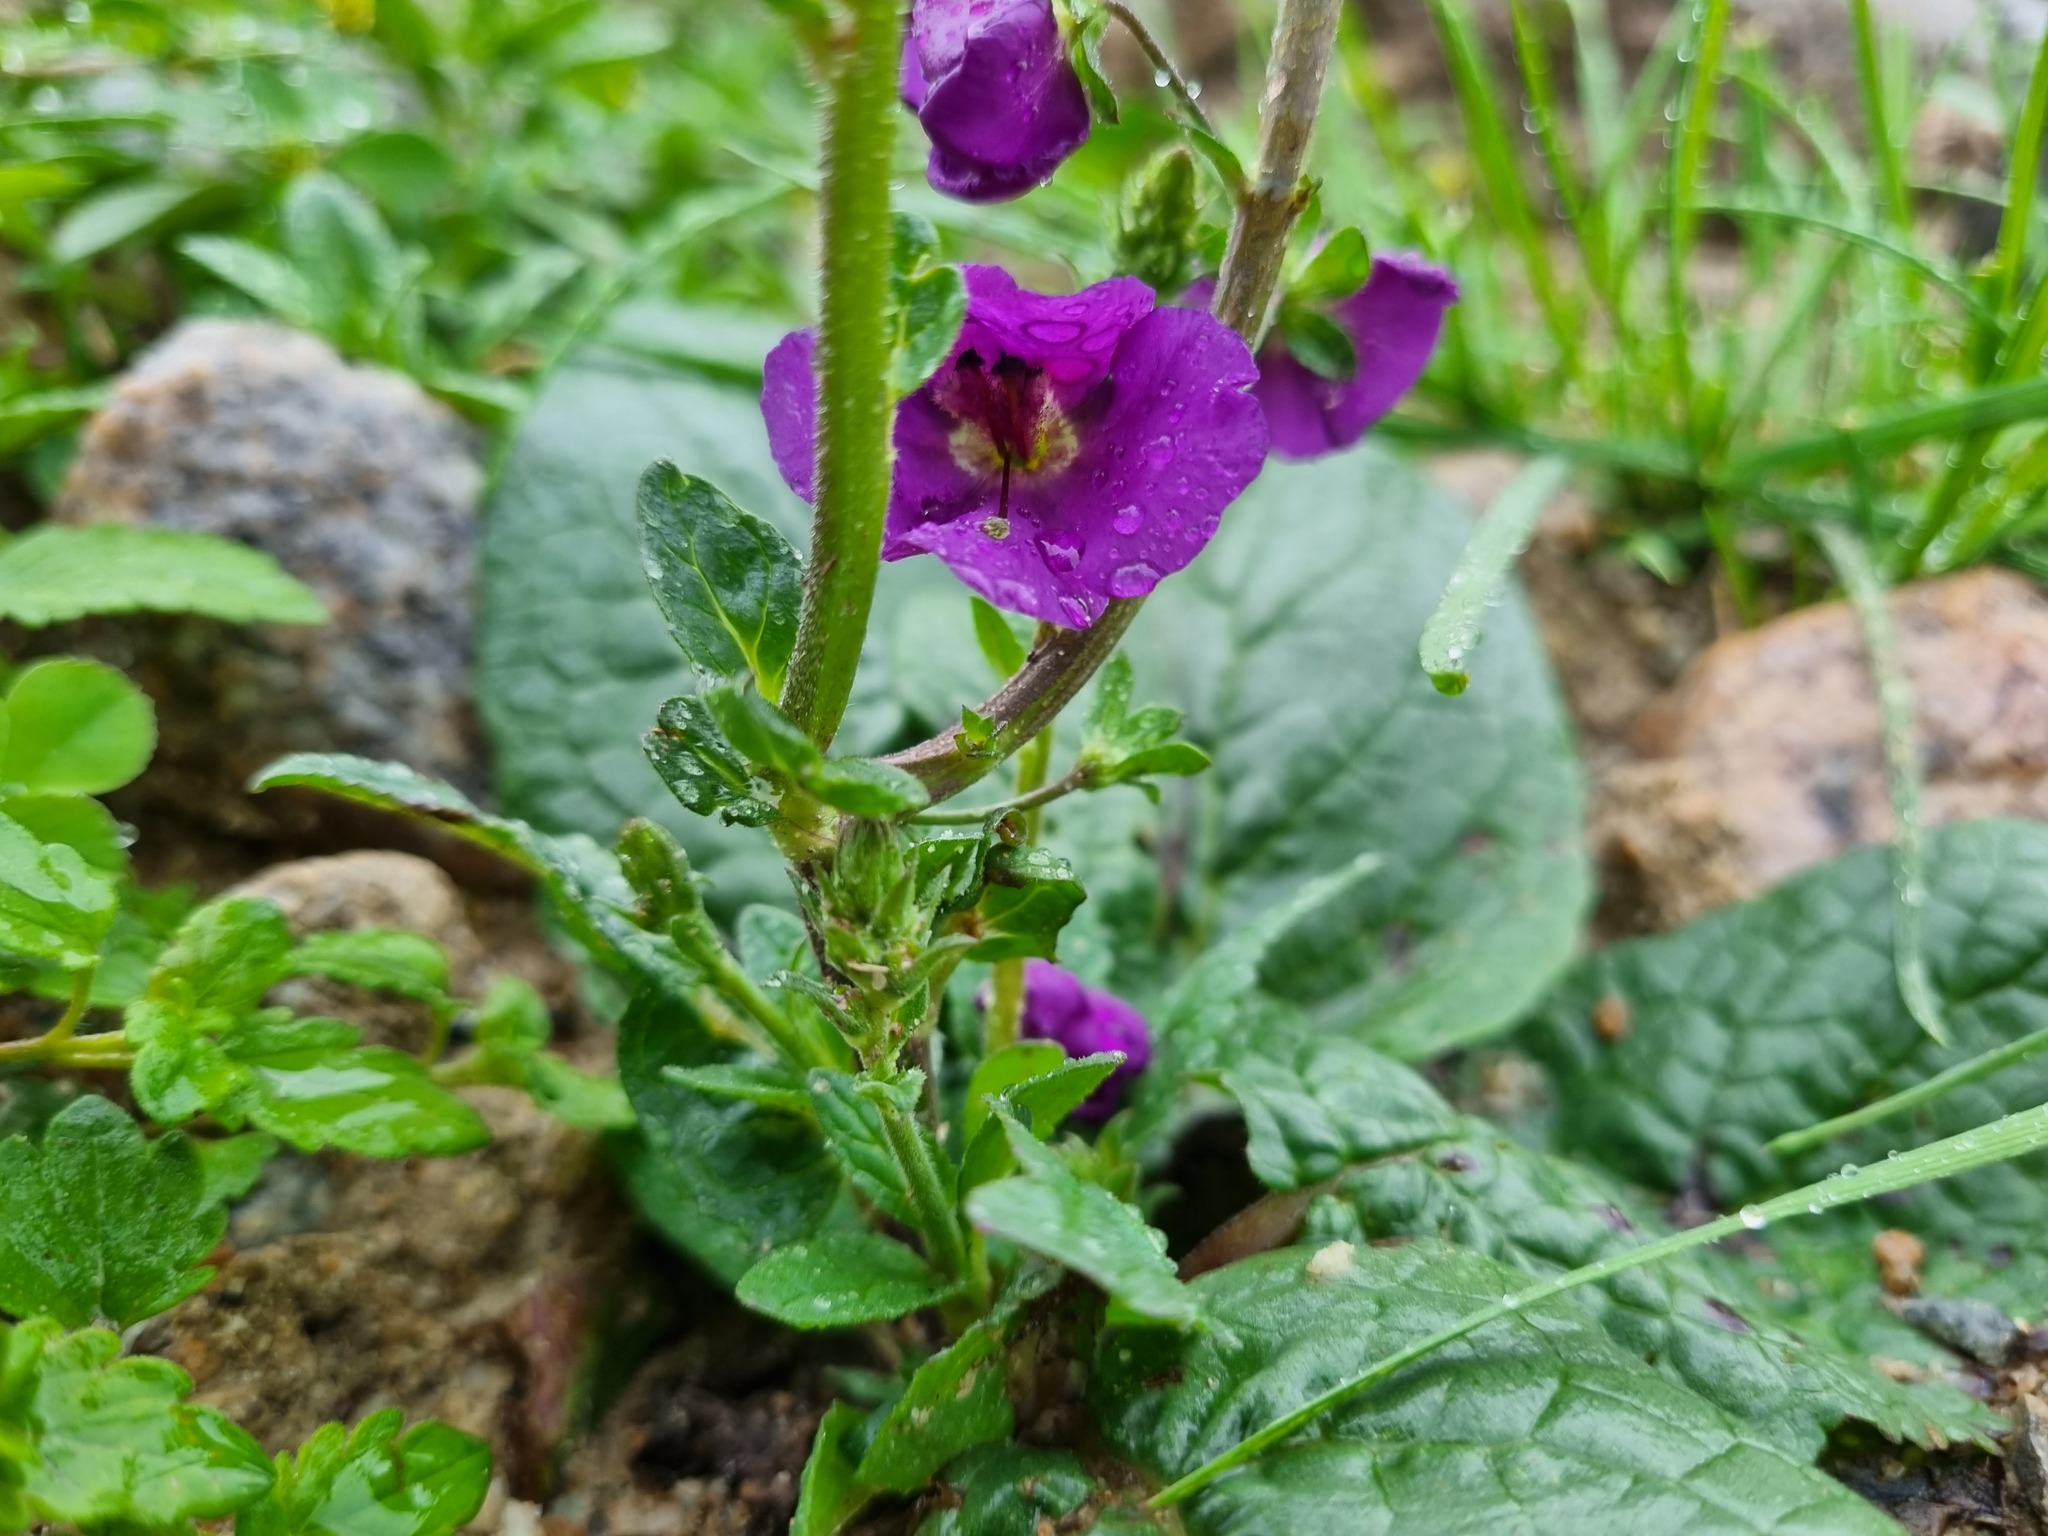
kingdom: Plantae
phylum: Tracheophyta
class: Magnoliopsida
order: Lamiales
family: Scrophulariaceae
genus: Verbascum
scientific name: Verbascum phoeniceum
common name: Purple mullein
